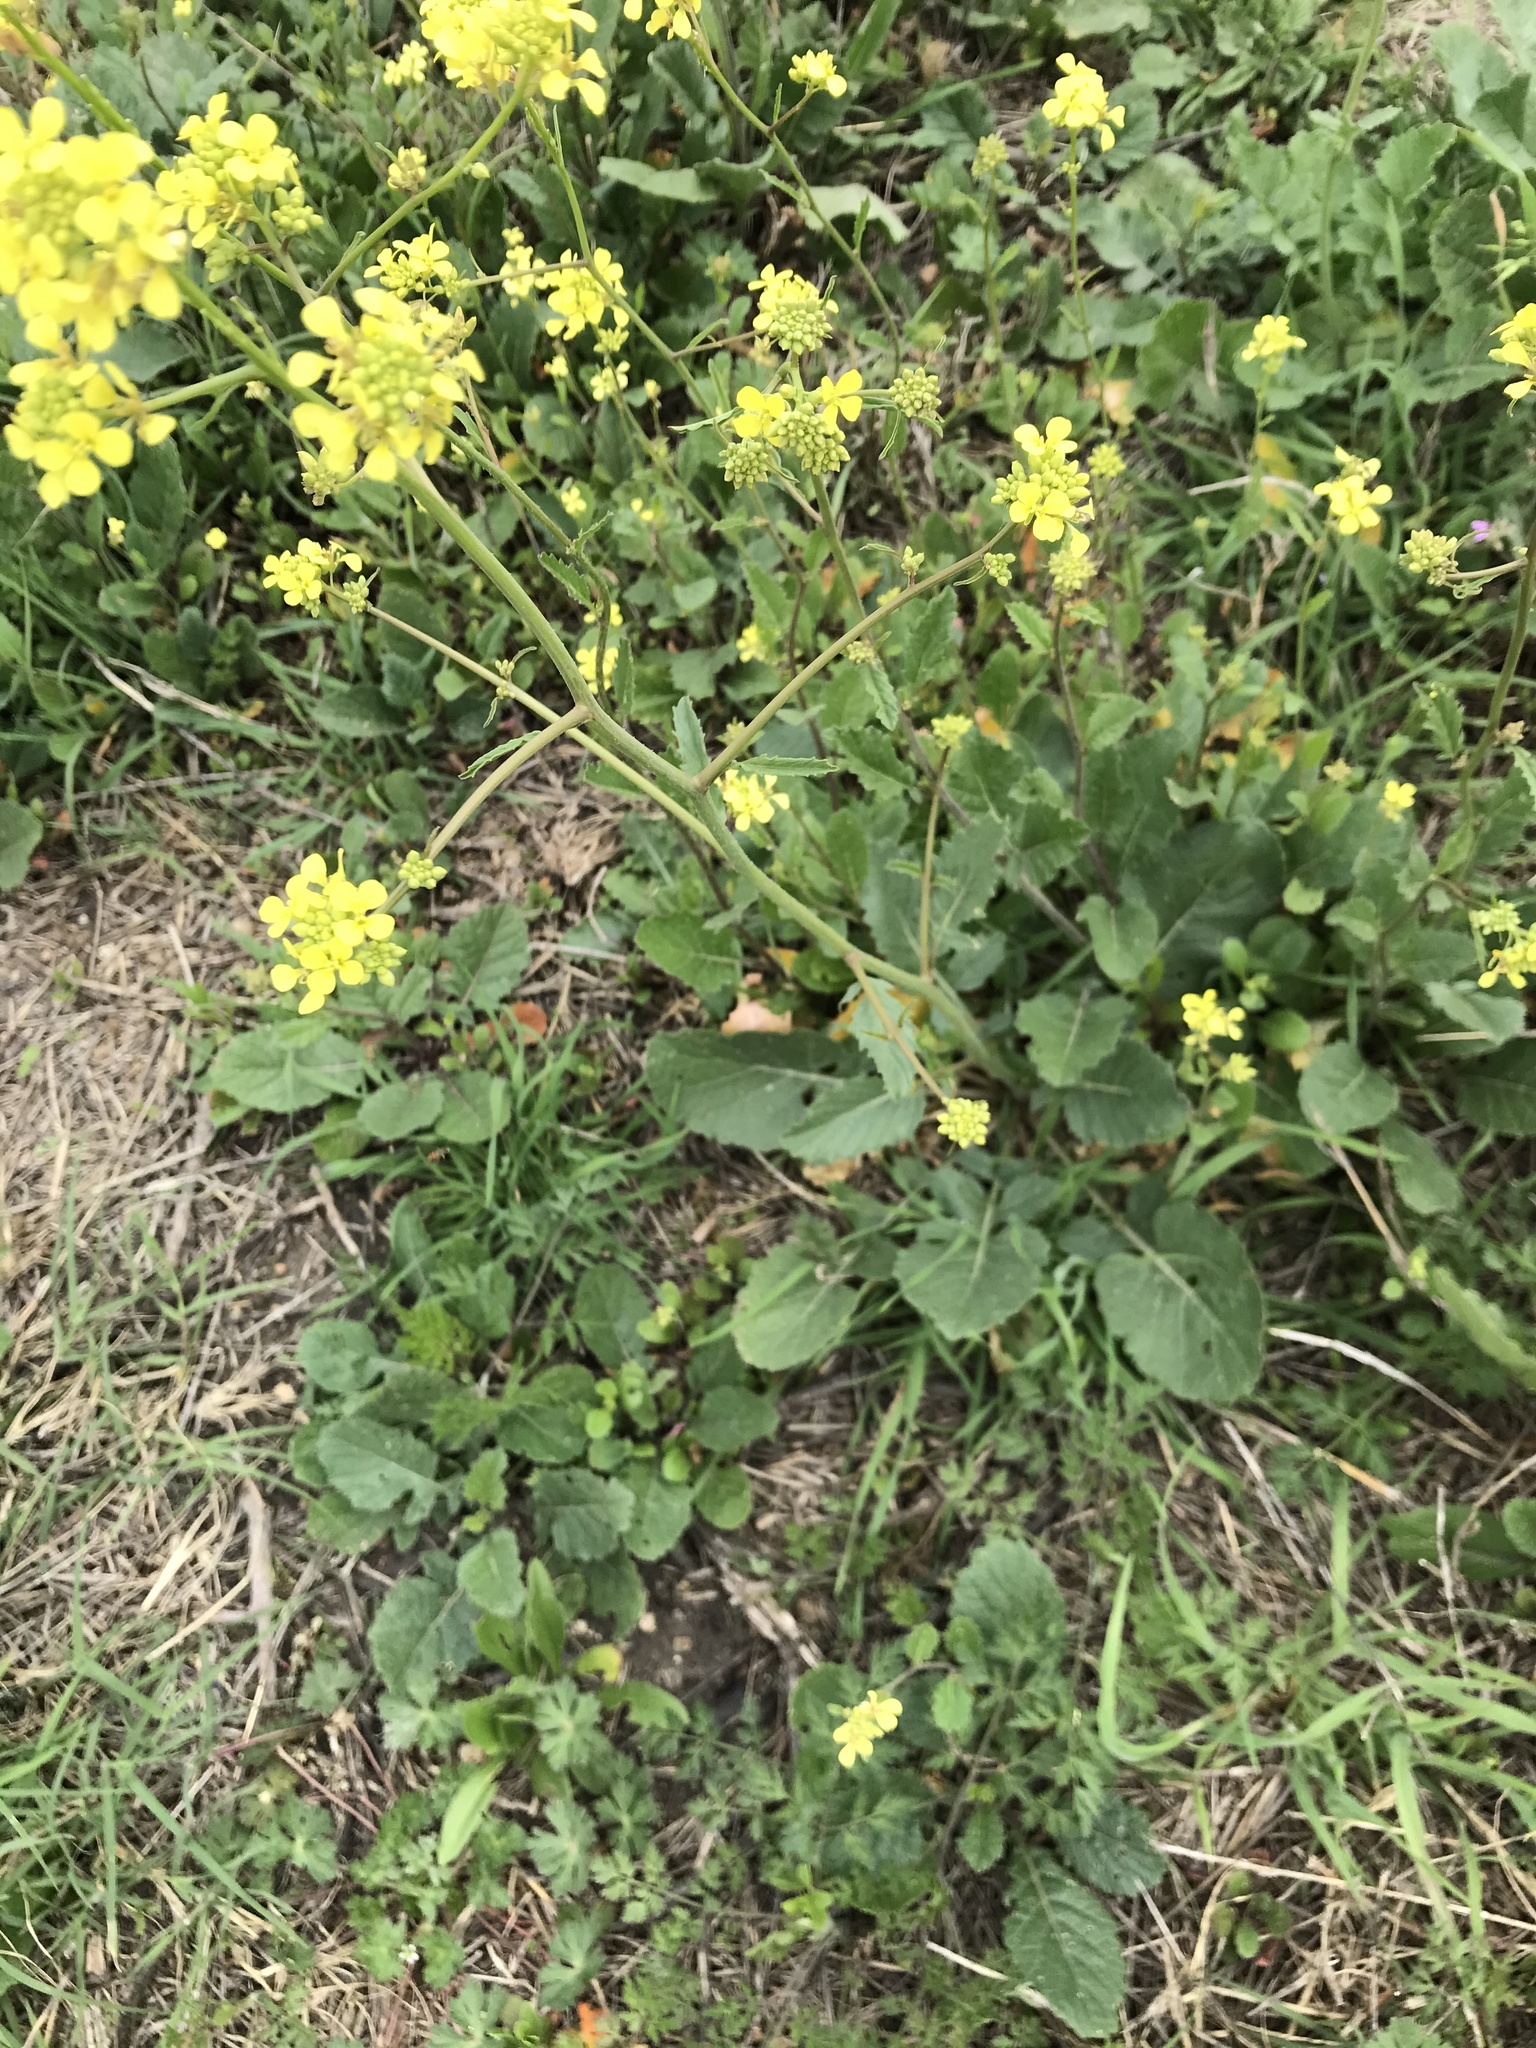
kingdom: Plantae
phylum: Tracheophyta
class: Magnoliopsida
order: Brassicales
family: Brassicaceae
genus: Rapistrum
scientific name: Rapistrum rugosum
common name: Annual bastardcabbage
